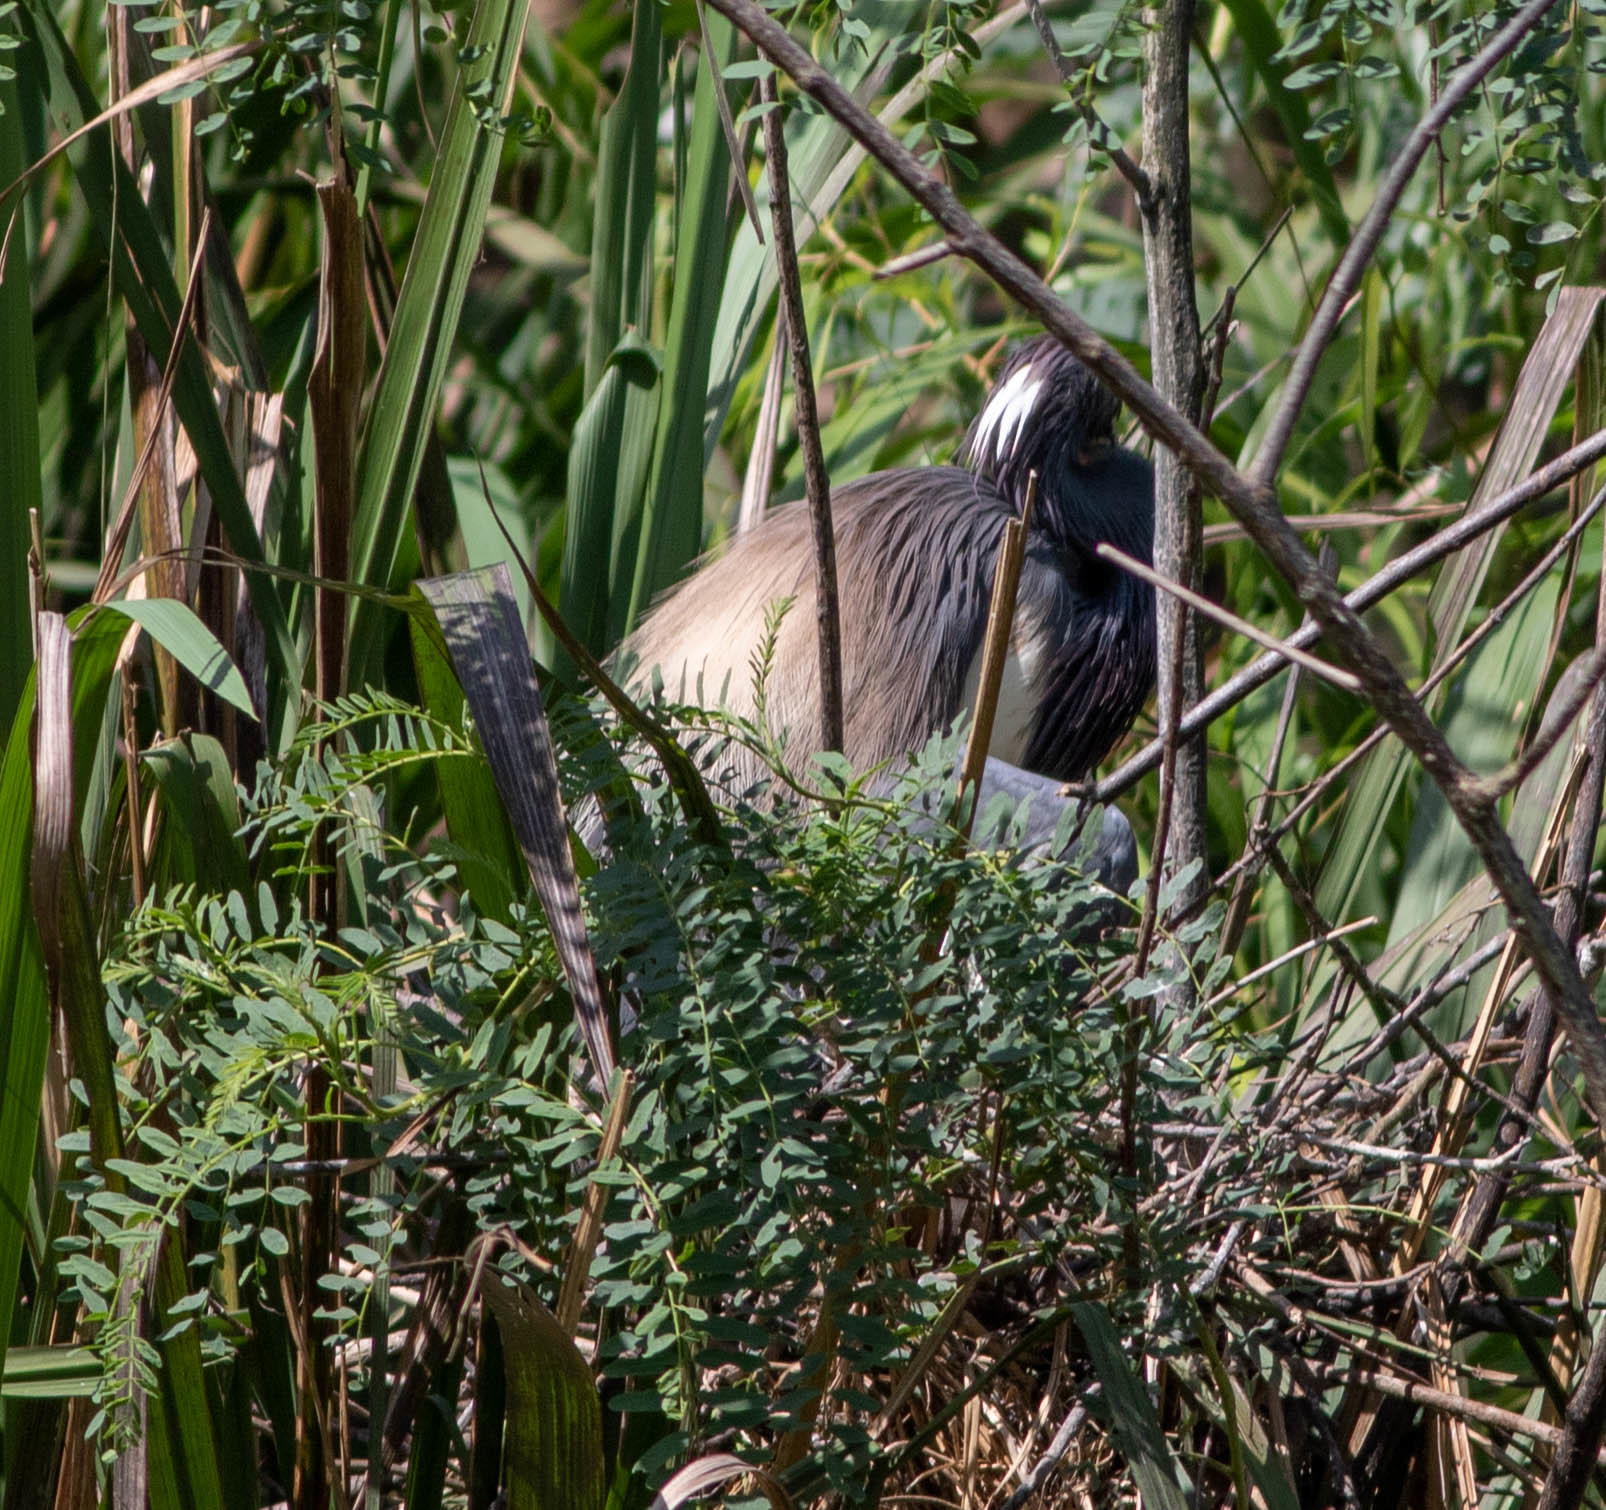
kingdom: Animalia
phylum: Chordata
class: Aves
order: Pelecaniformes
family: Ardeidae
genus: Egretta
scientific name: Egretta tricolor
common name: Tricolored heron
